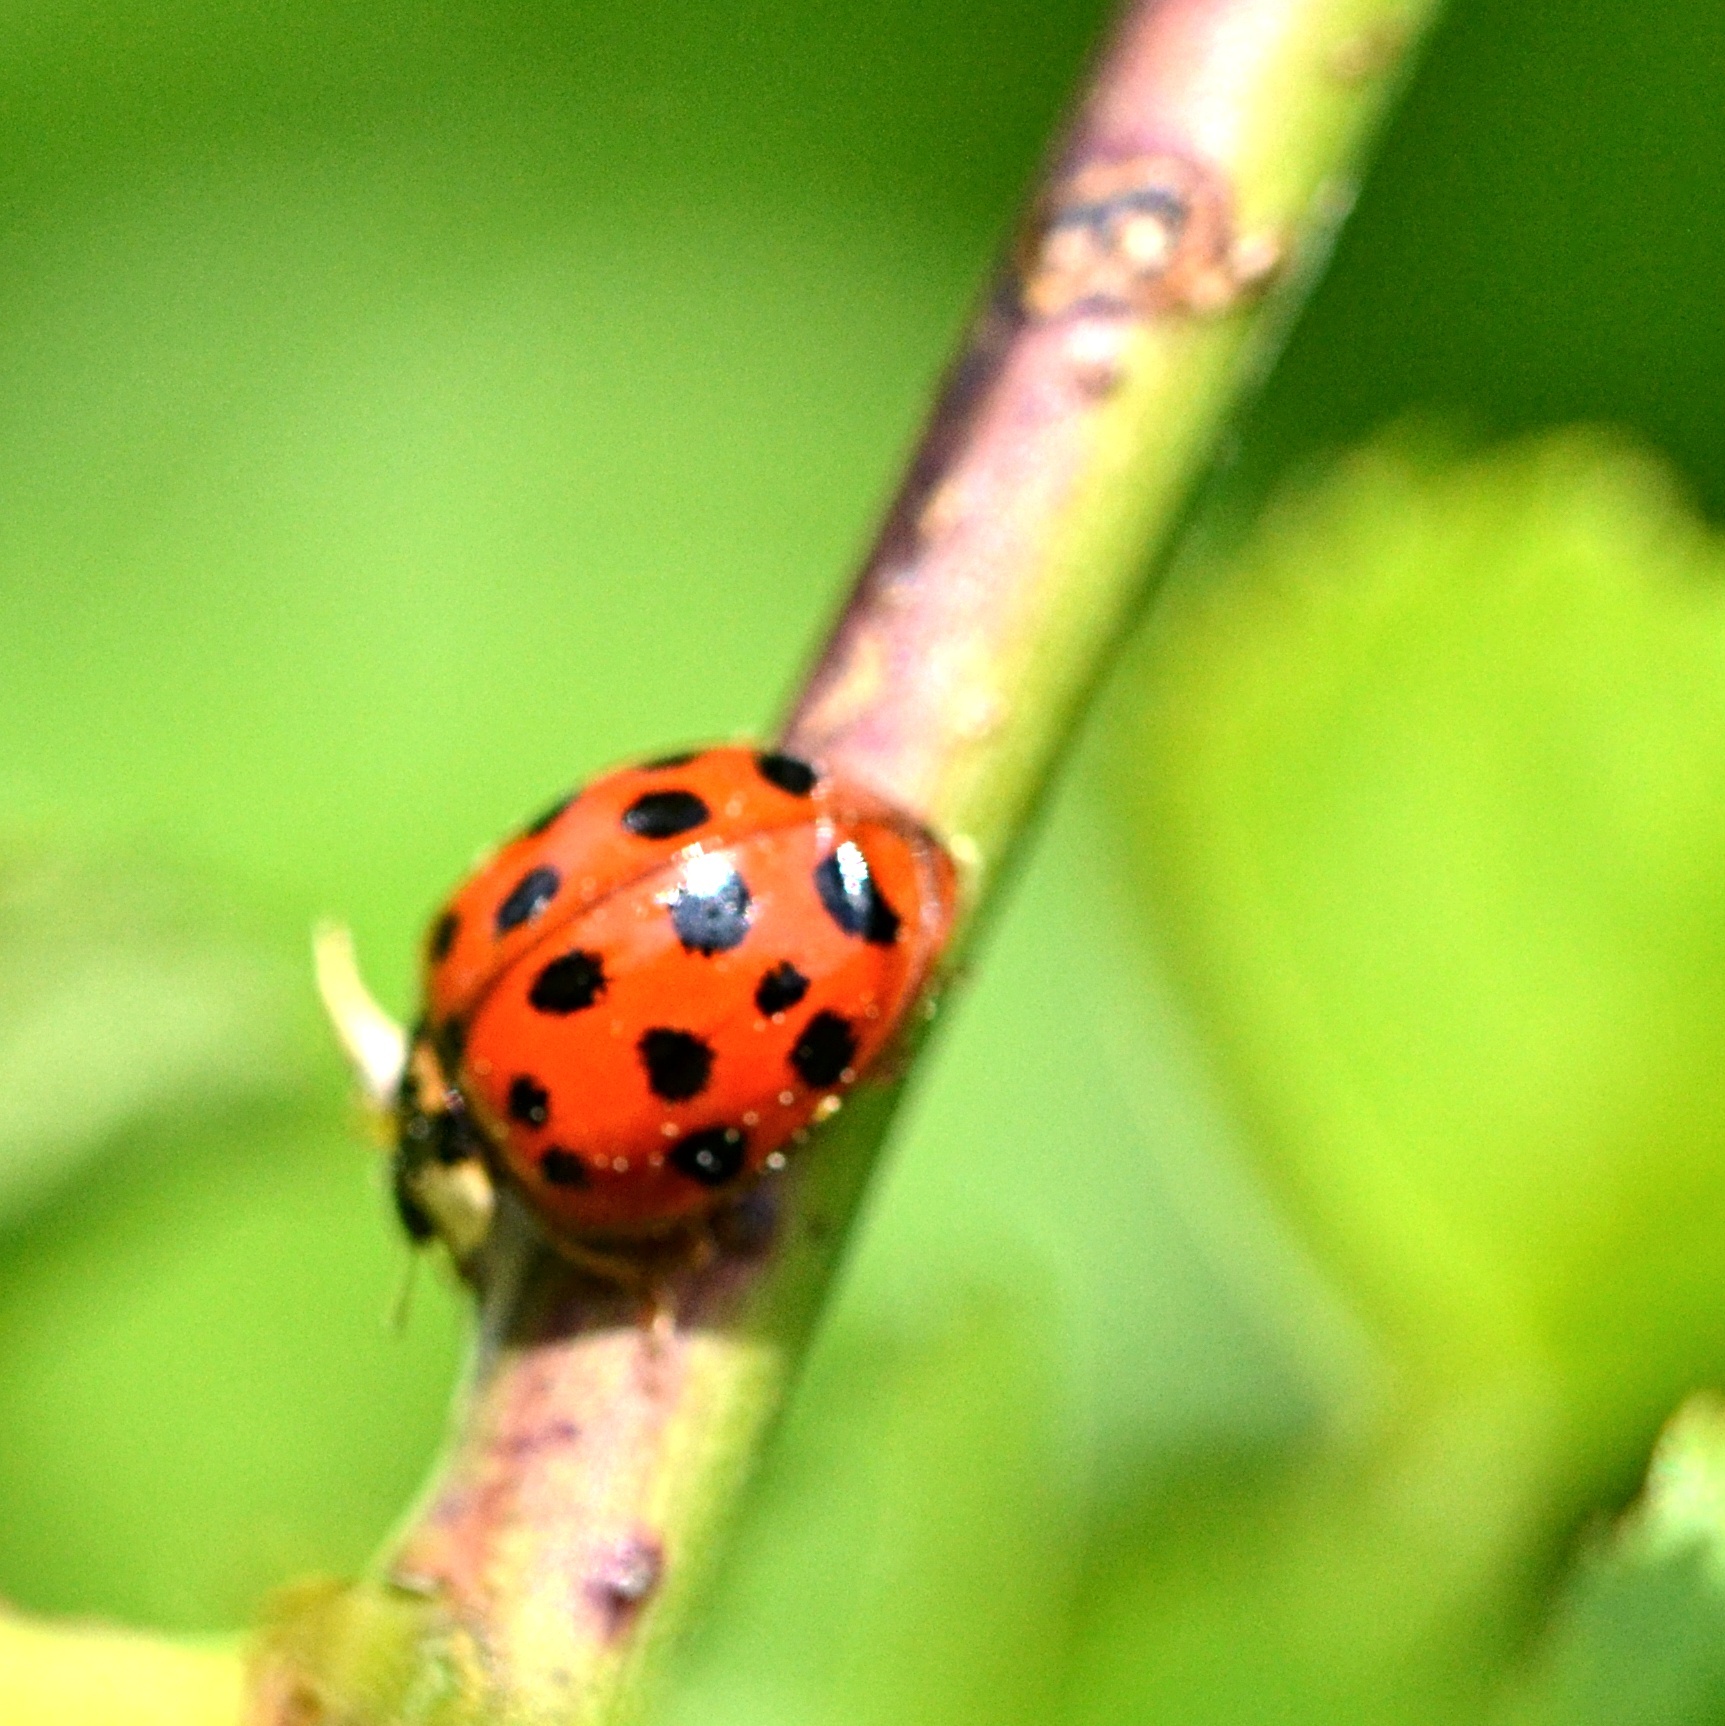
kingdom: Animalia
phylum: Arthropoda
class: Insecta
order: Coleoptera
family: Coccinellidae
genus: Harmonia
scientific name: Harmonia axyridis
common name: Harlequin ladybird
